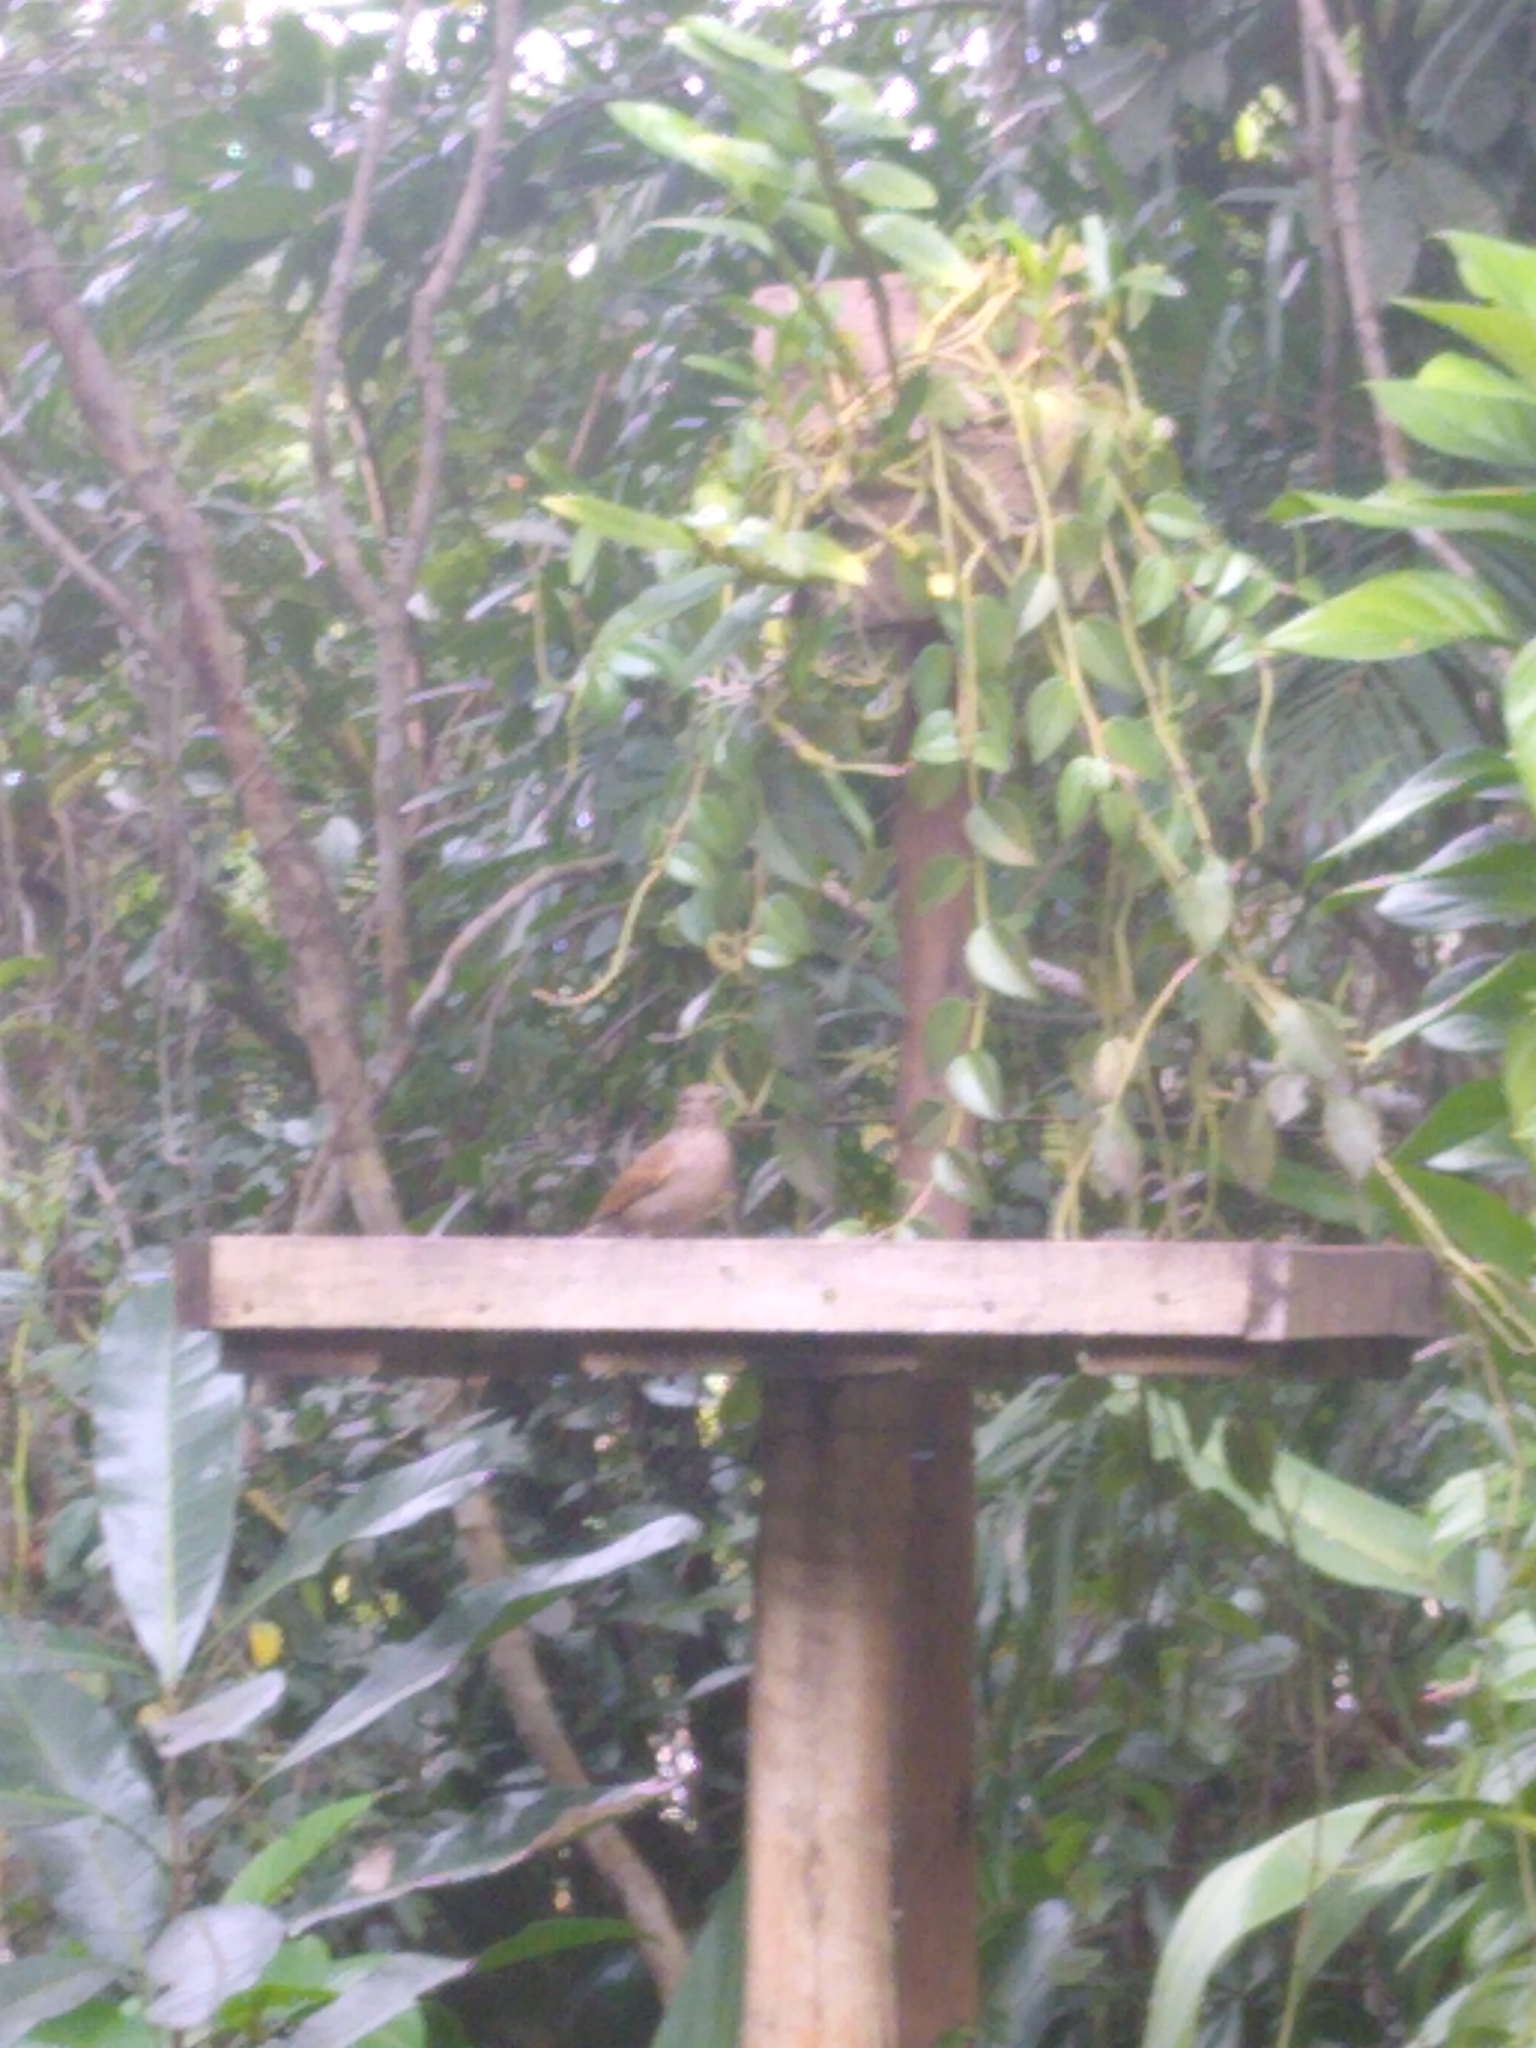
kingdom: Animalia
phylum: Chordata
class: Aves
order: Passeriformes
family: Turdidae
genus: Turdus
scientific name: Turdus leucomelas
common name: Pale-breasted thrush
